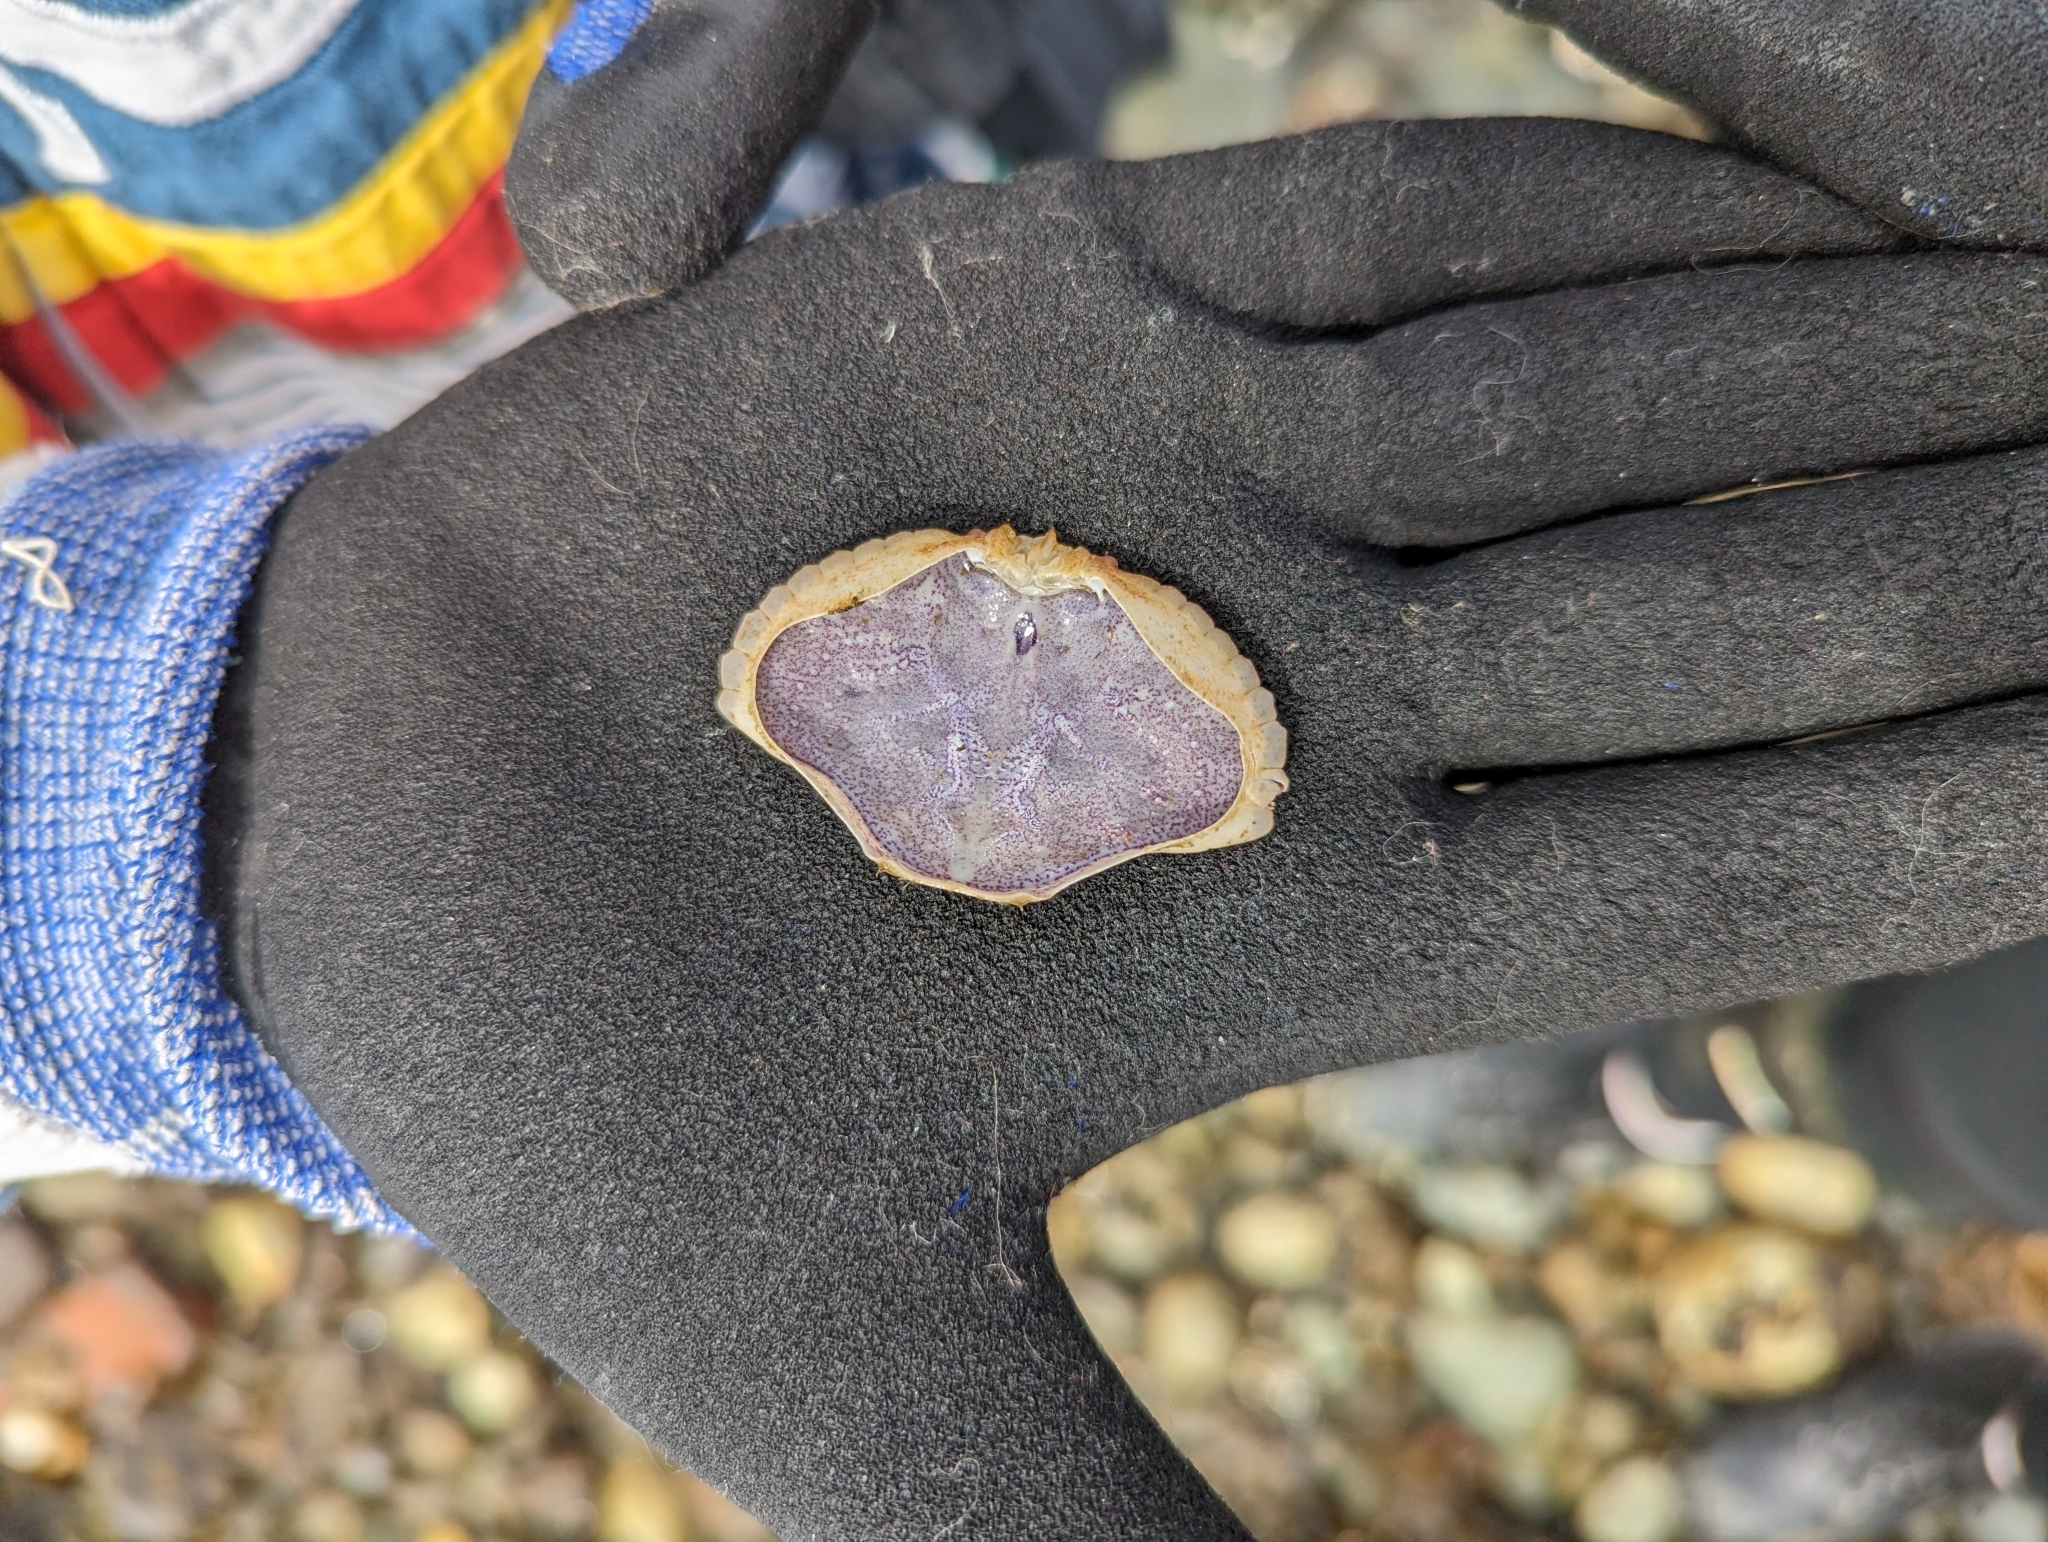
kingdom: Animalia
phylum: Arthropoda
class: Malacostraca
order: Decapoda
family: Cancridae
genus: Cancer
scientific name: Cancer productus
